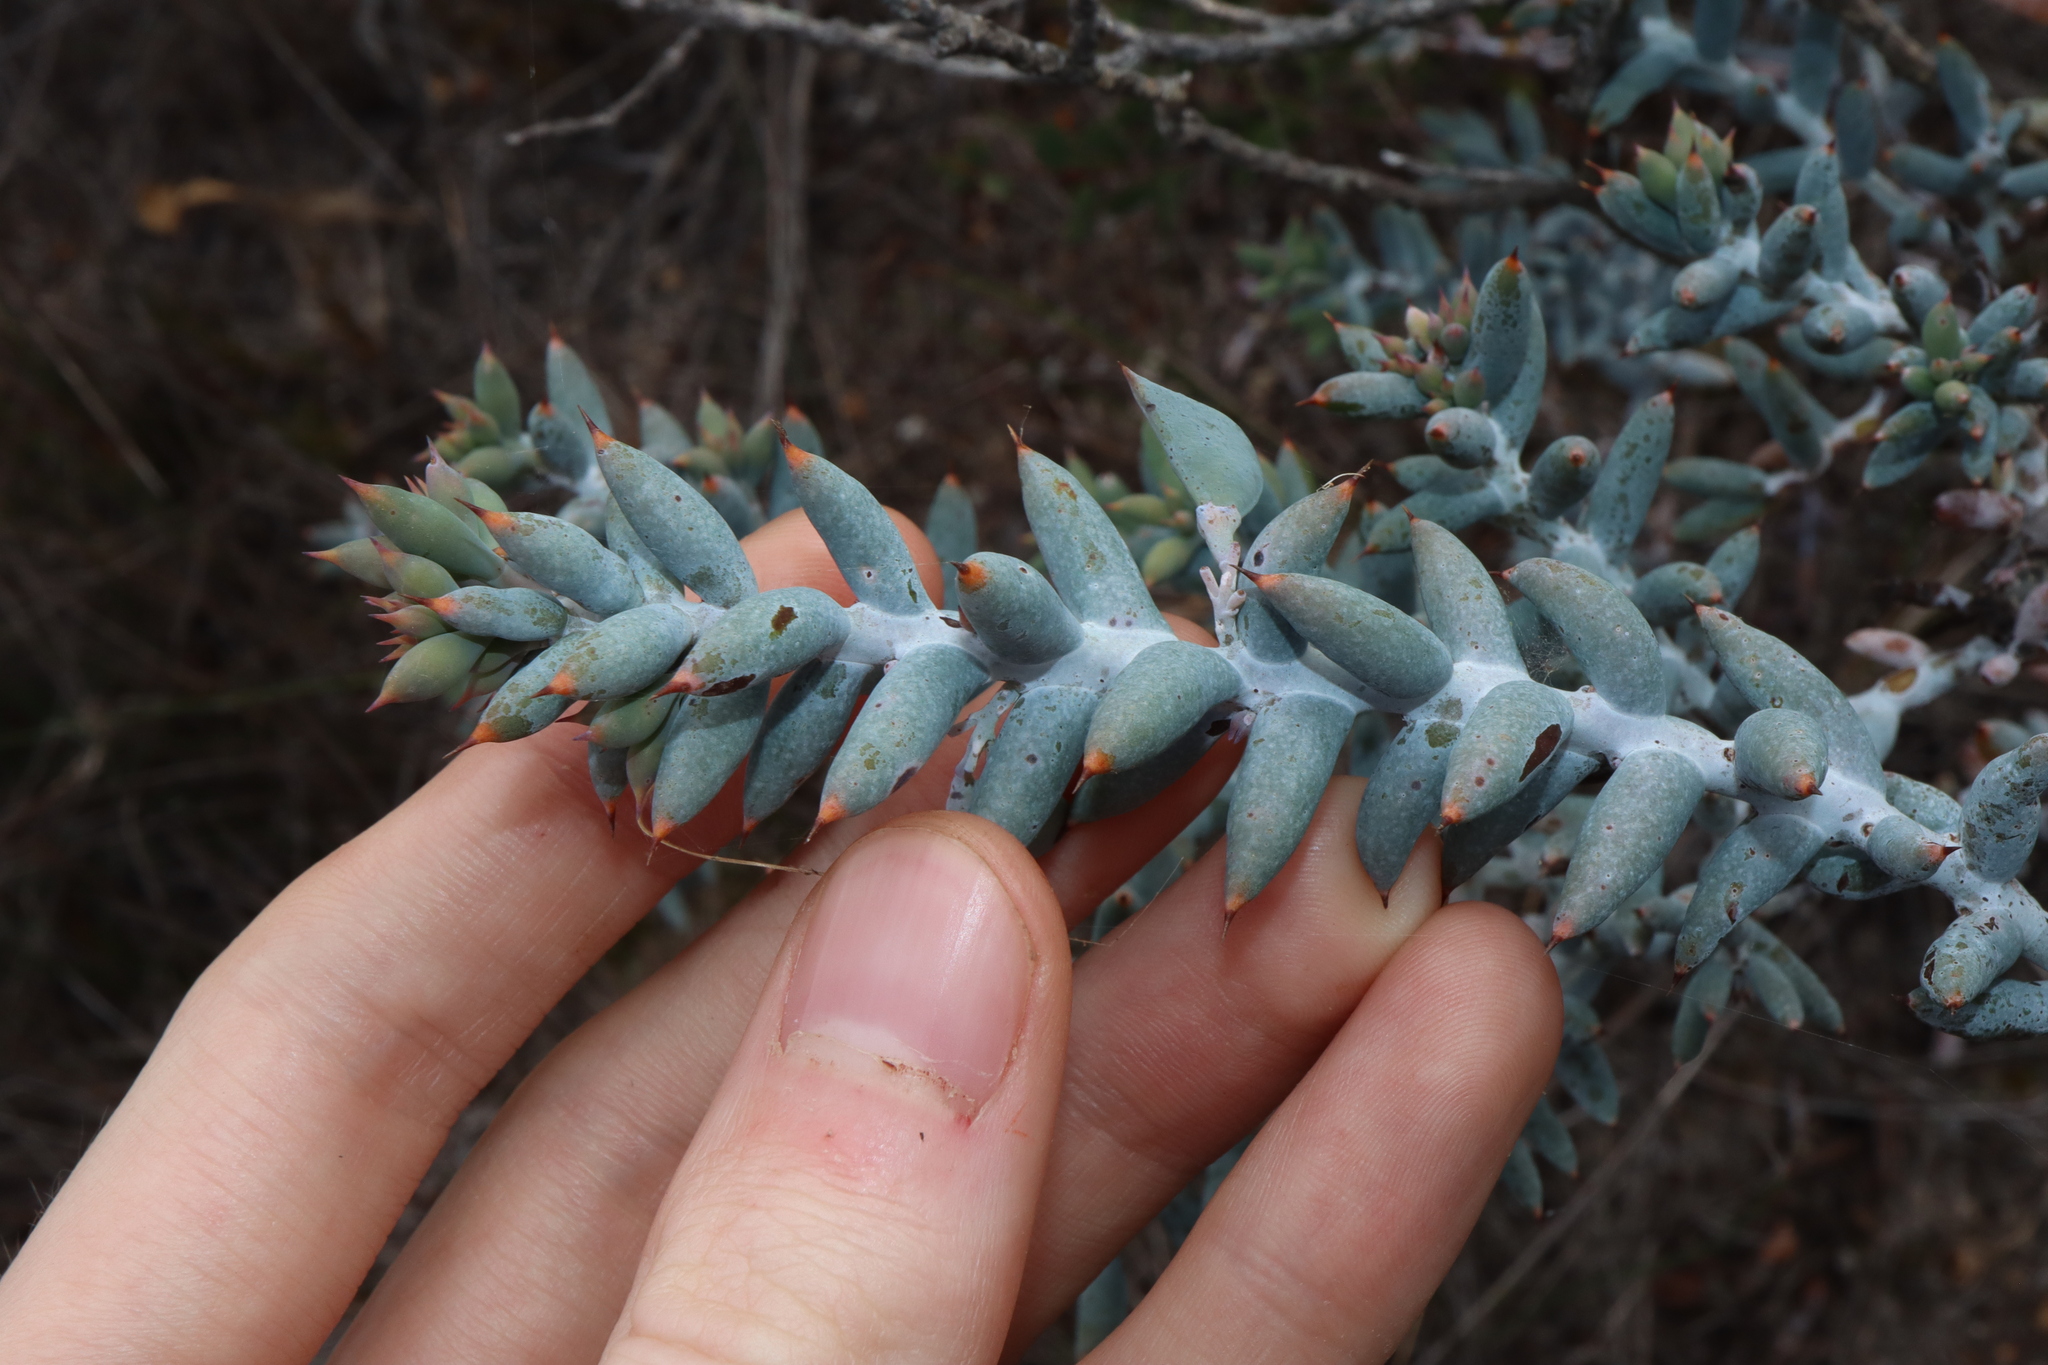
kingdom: Plantae
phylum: Tracheophyta
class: Magnoliopsida
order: Fabales
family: Fabaceae
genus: Daviesia
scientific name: Daviesia pachyphylla
